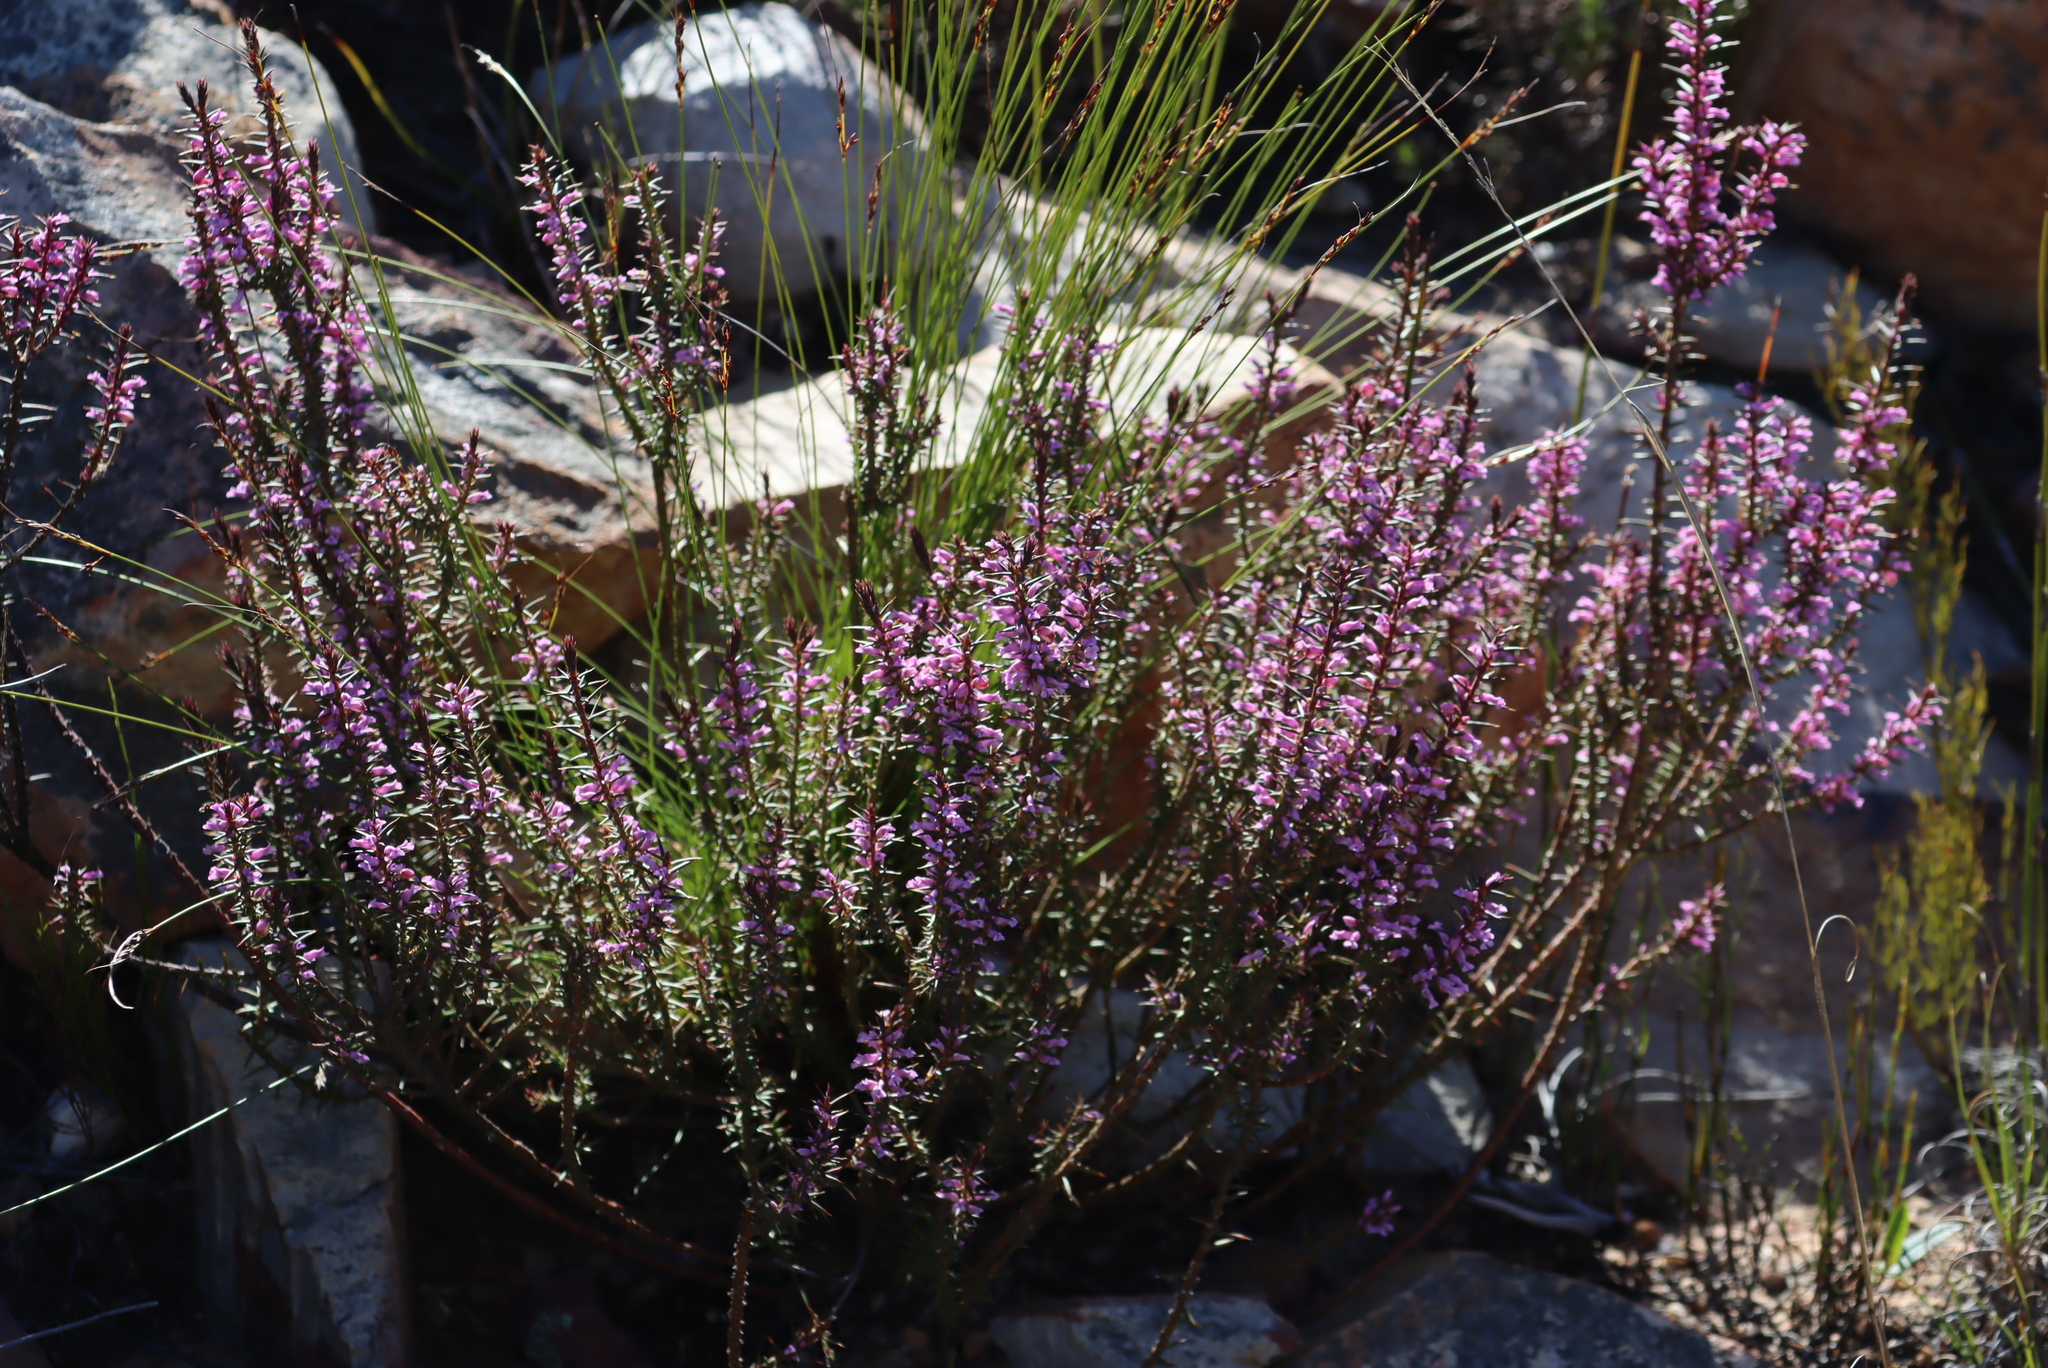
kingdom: Plantae
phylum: Tracheophyta
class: Magnoliopsida
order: Fabales
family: Polygalaceae
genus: Muraltia
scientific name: Muraltia juniperifolia
